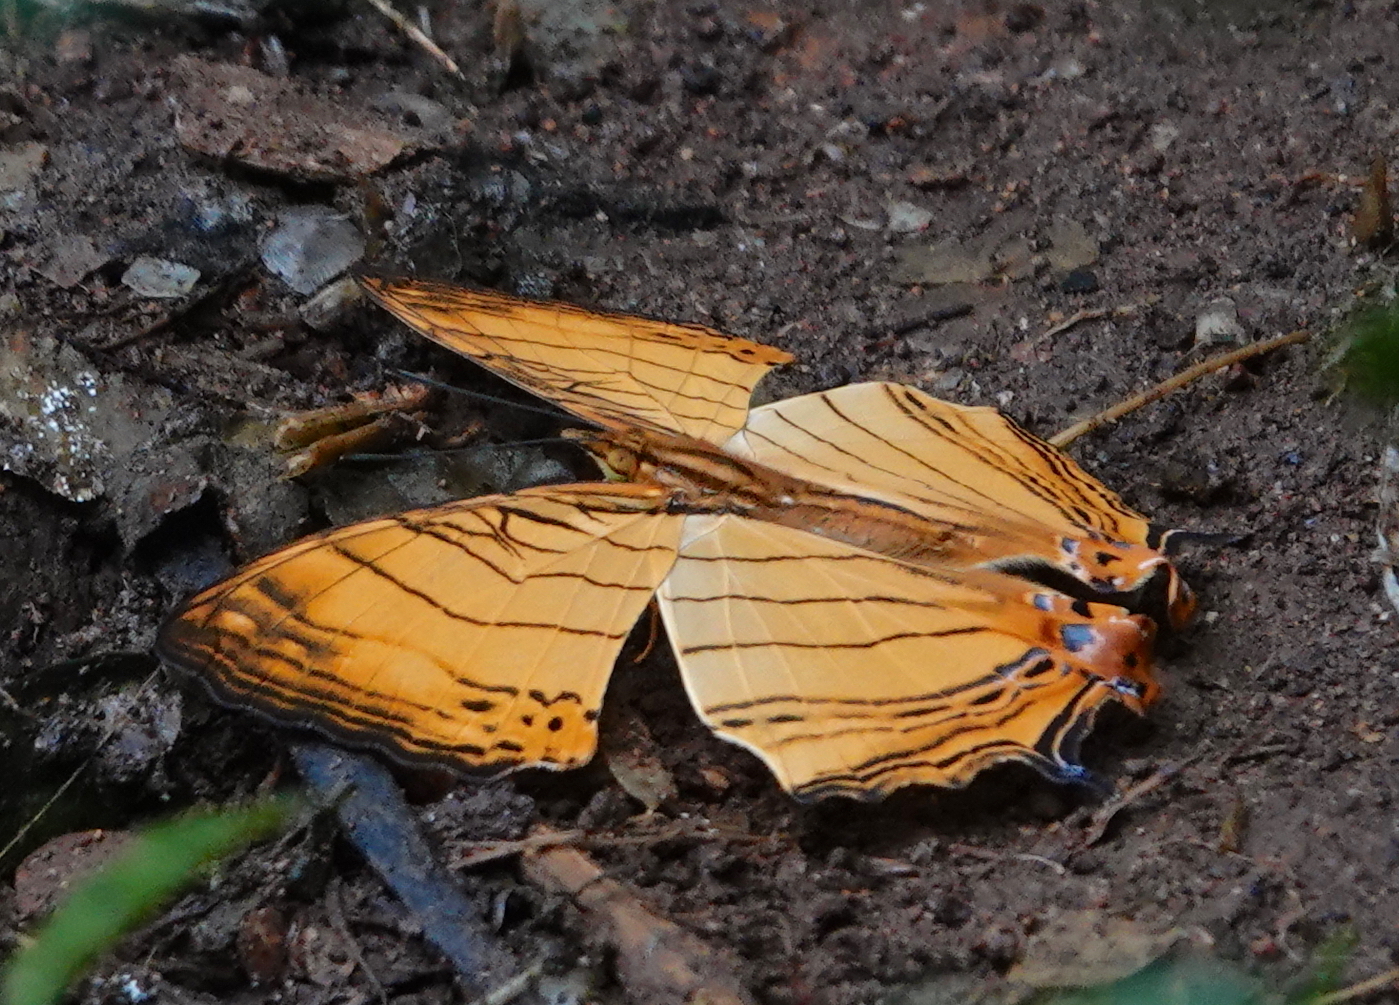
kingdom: Animalia
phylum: Arthropoda
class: Insecta
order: Lepidoptera
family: Nymphalidae
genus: Cyrestis
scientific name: Cyrestis lutea
